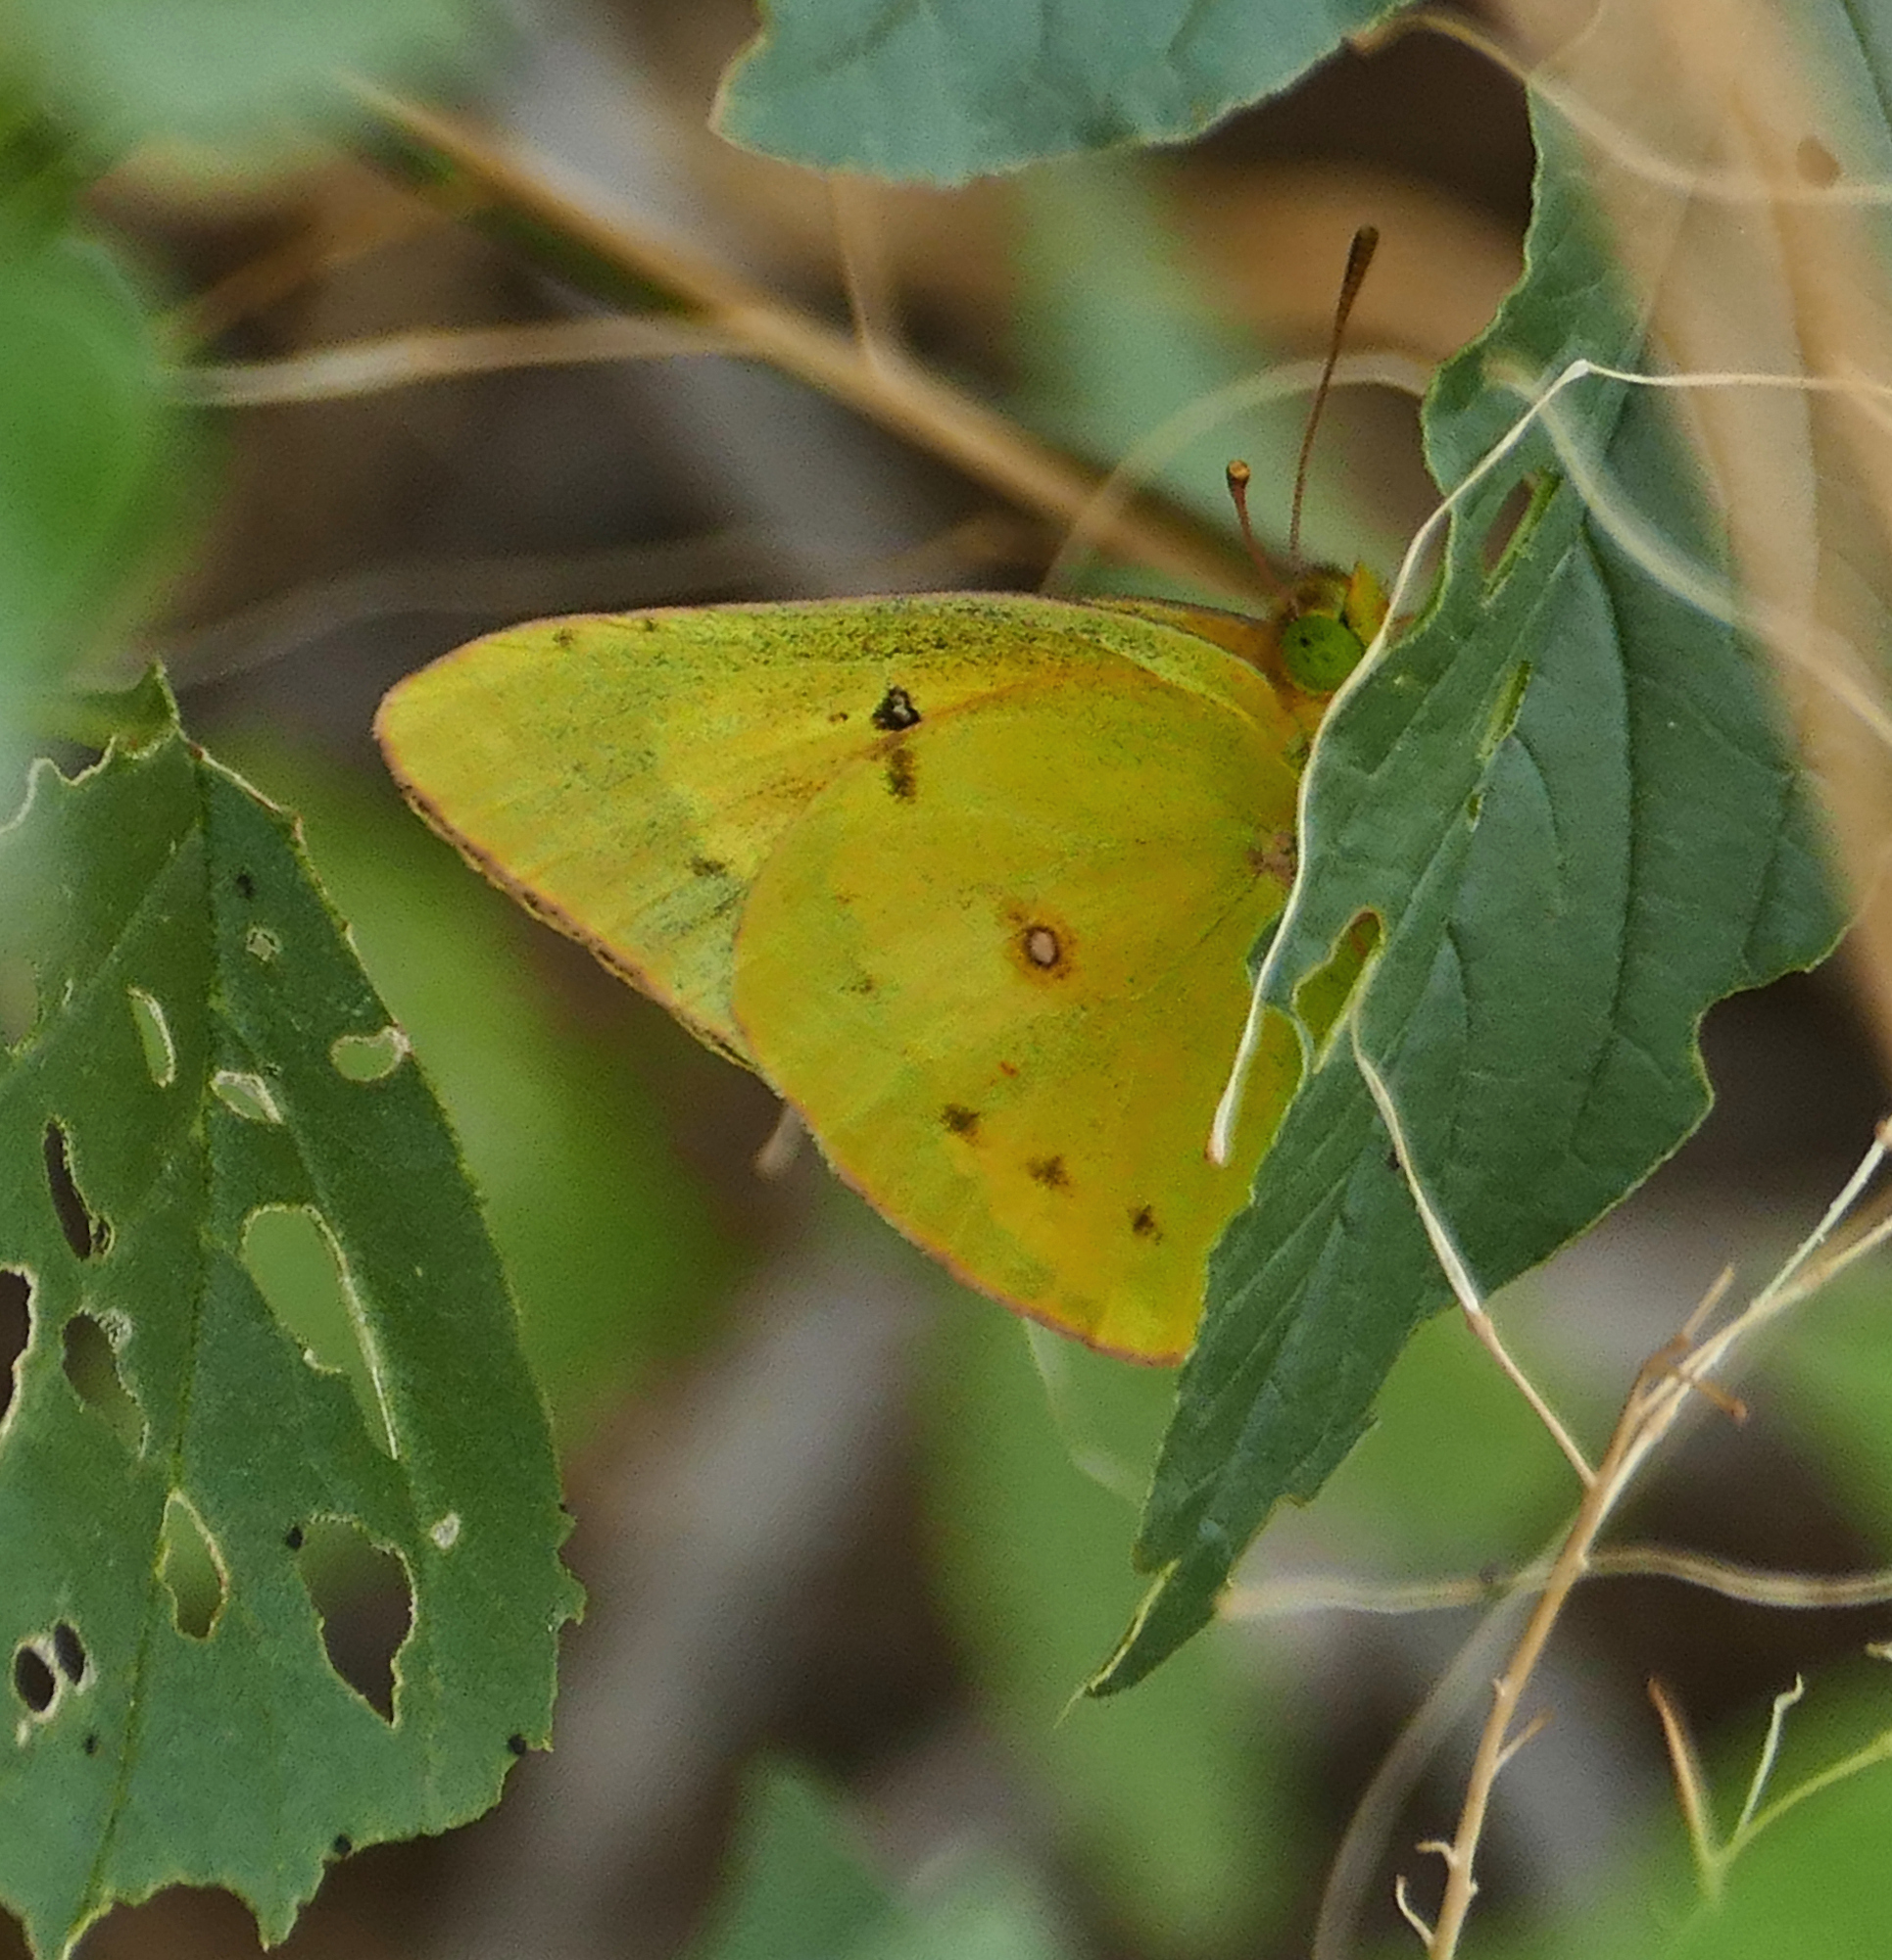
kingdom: Animalia
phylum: Arthropoda
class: Insecta
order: Lepidoptera
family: Pieridae
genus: Colias
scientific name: Colias eurytheme
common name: Alfalfa butterfly
